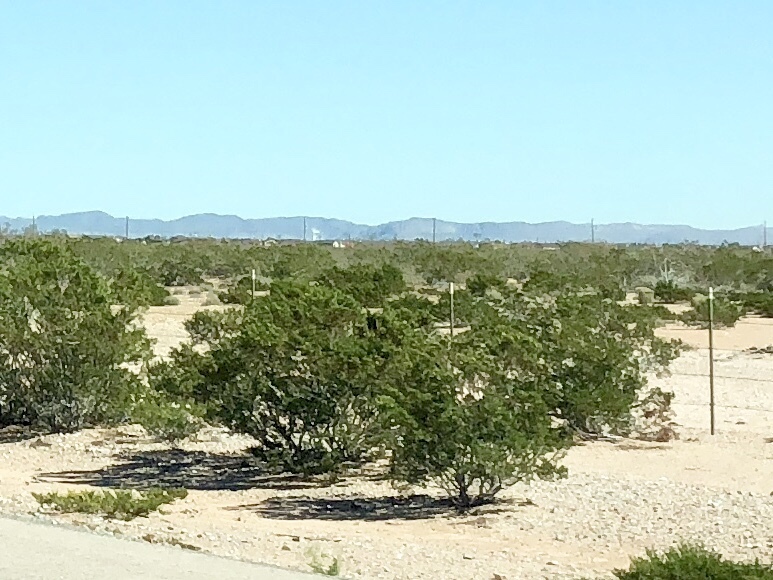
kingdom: Plantae
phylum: Tracheophyta
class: Magnoliopsida
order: Zygophyllales
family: Zygophyllaceae
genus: Larrea
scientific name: Larrea tridentata
